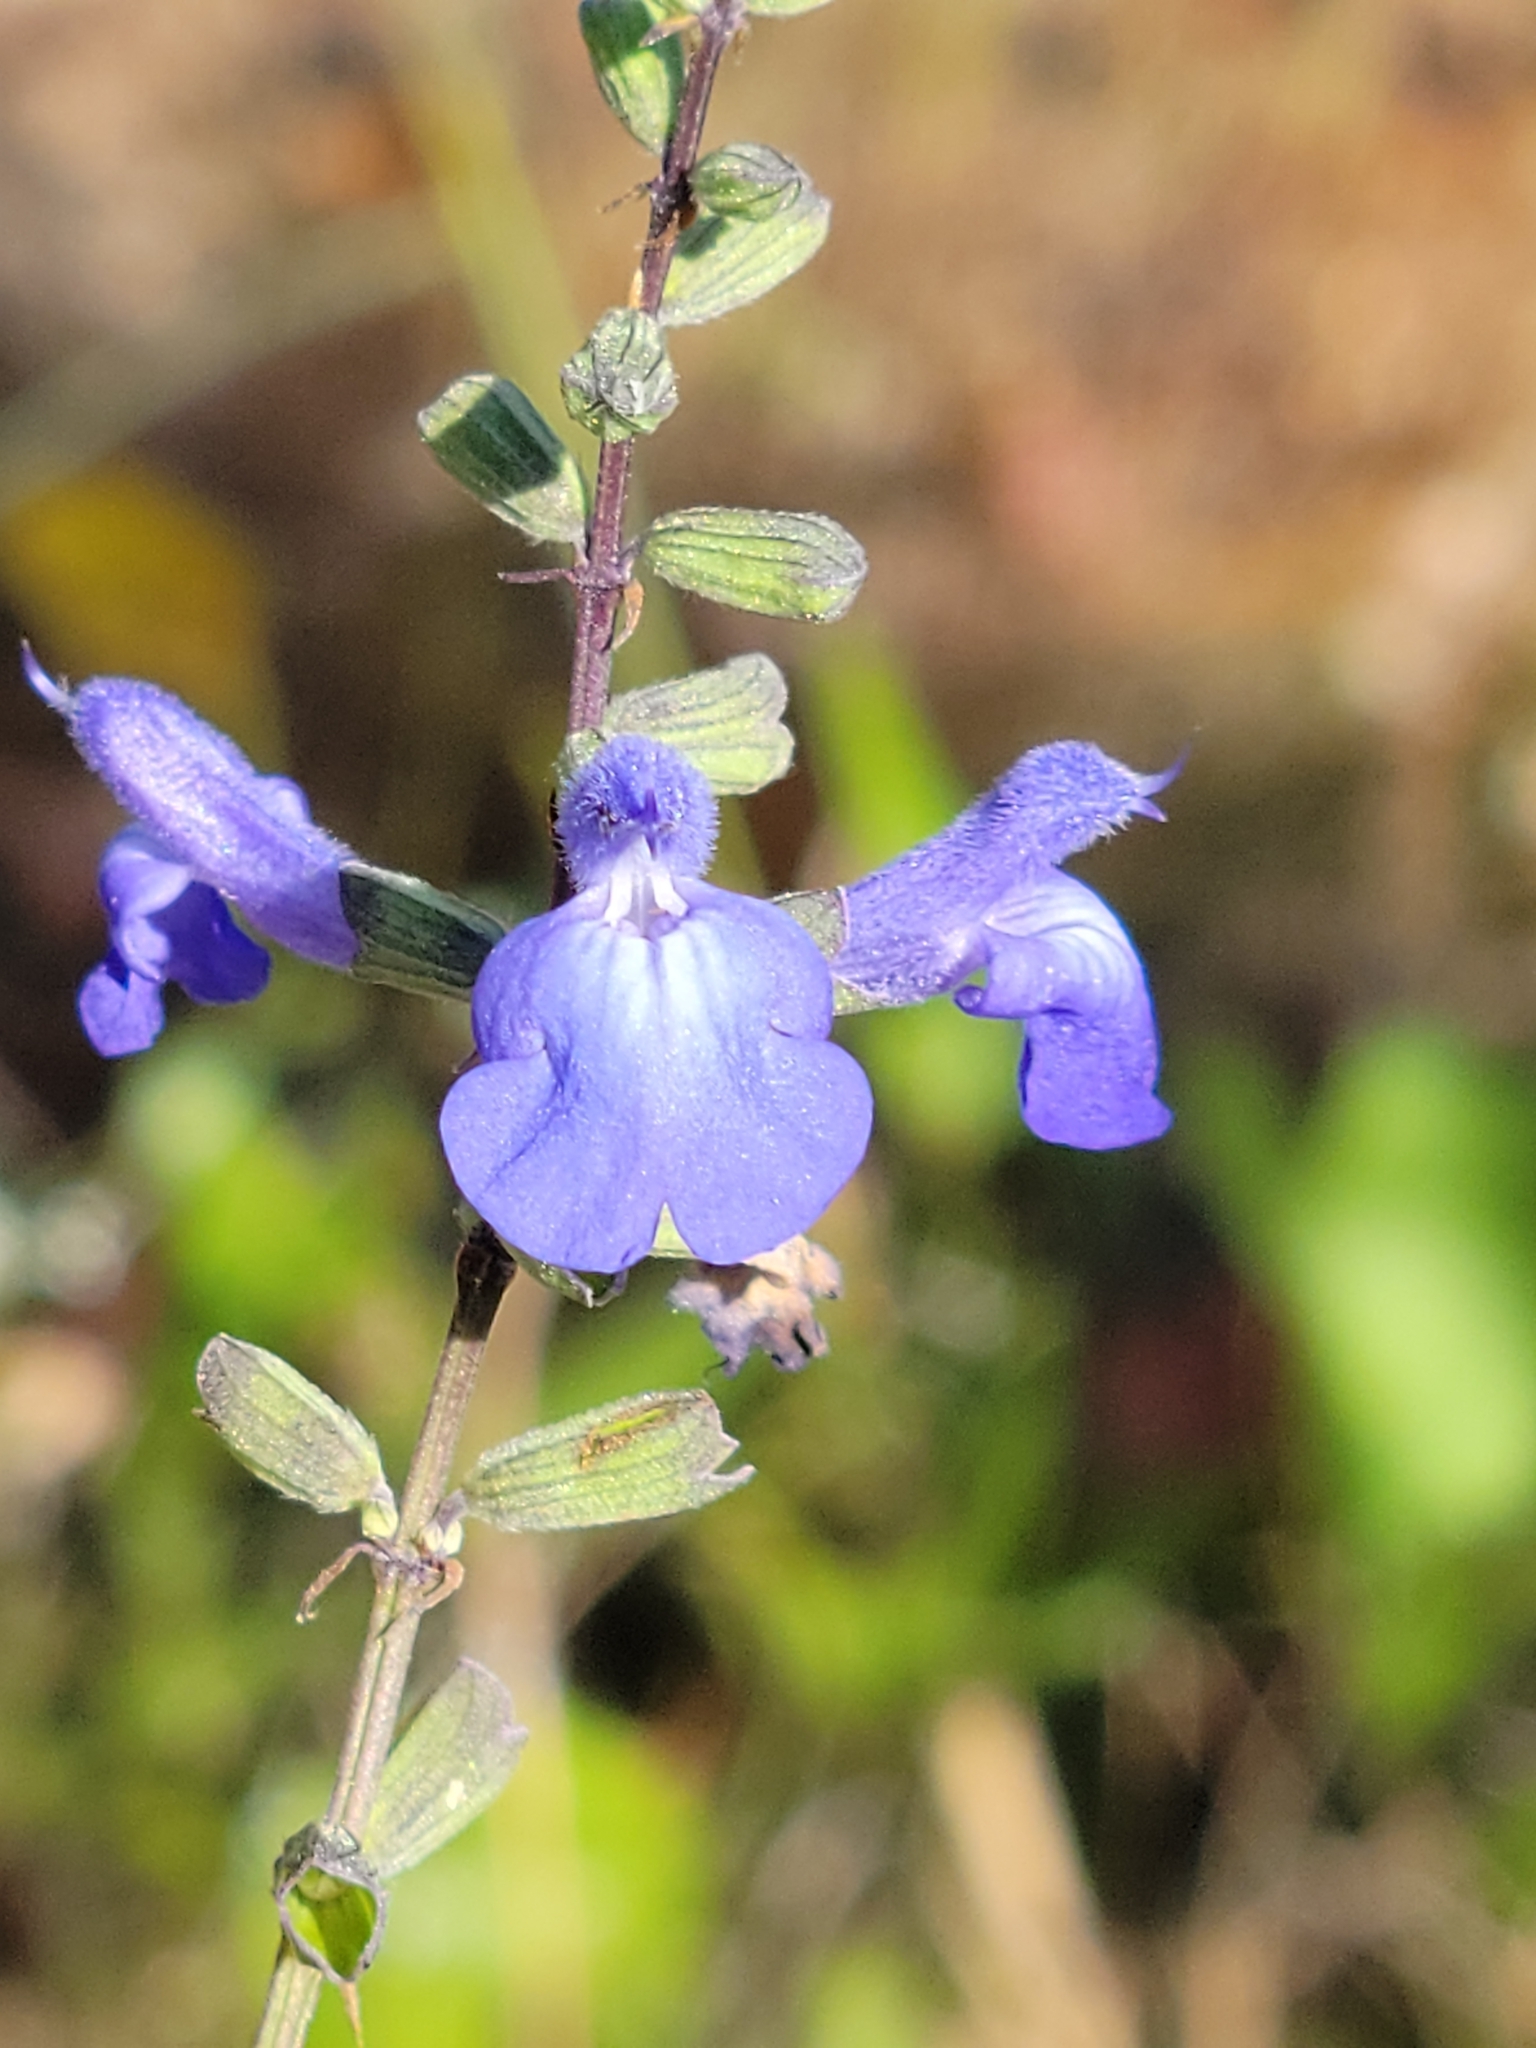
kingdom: Plantae
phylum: Tracheophyta
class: Magnoliopsida
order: Lamiales
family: Lamiaceae
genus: Salvia
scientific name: Salvia azurea
